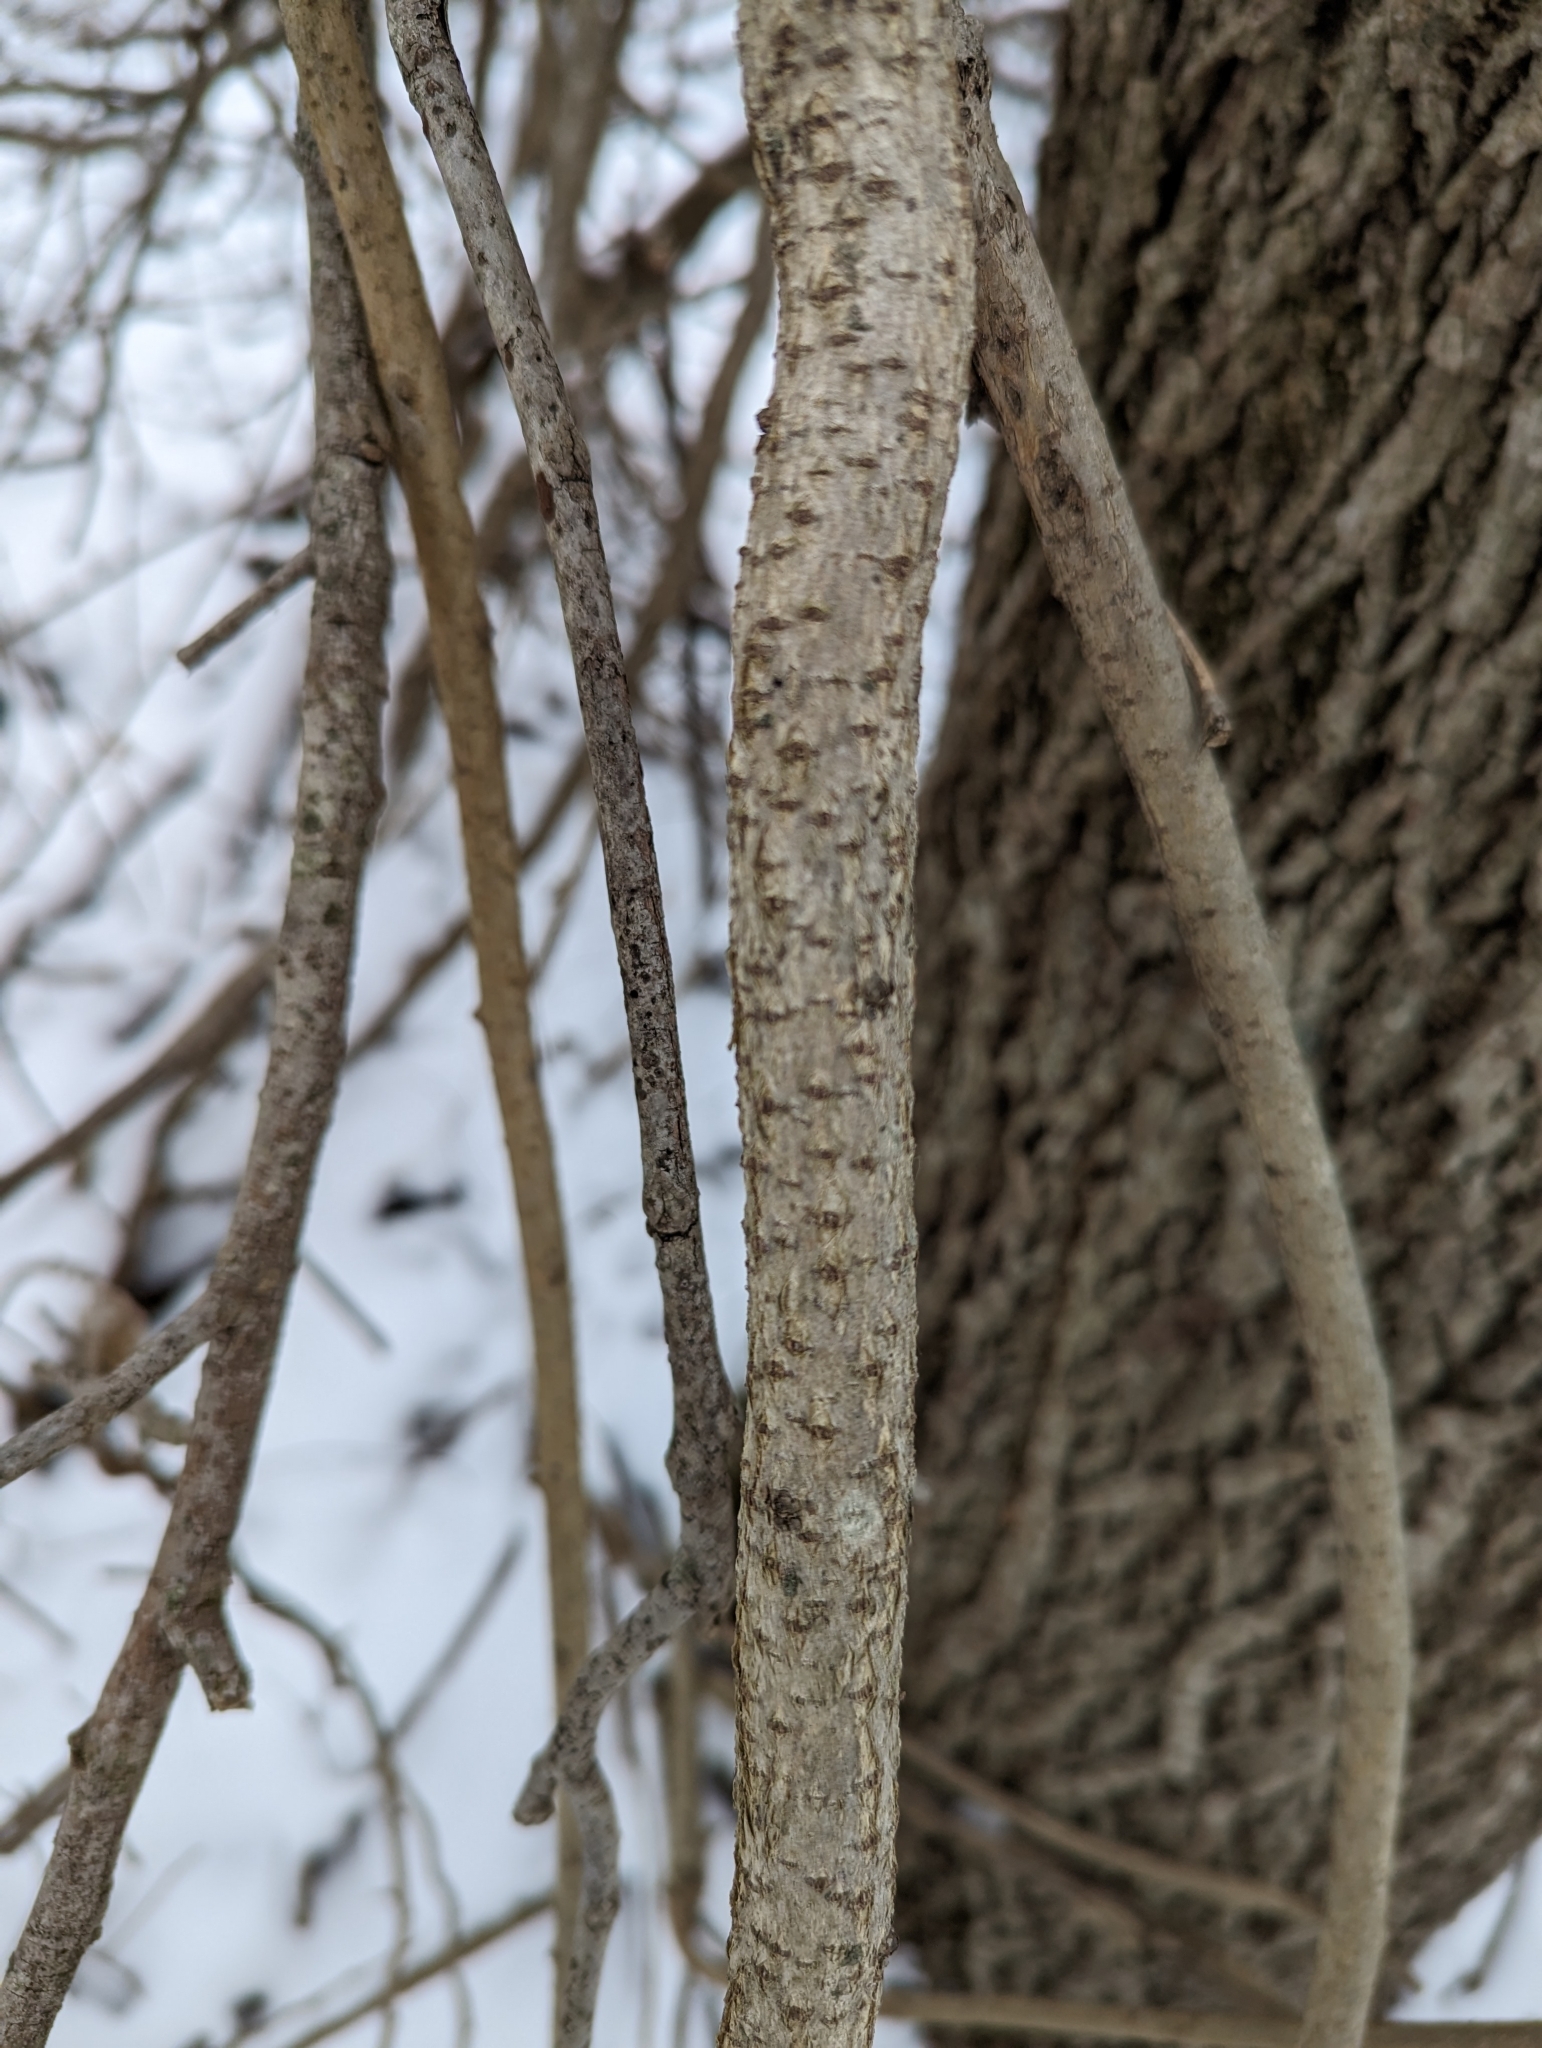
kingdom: Plantae
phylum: Tracheophyta
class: Magnoliopsida
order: Celastrales
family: Celastraceae
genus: Celastrus
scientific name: Celastrus orbiculatus
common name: Oriental bittersweet
